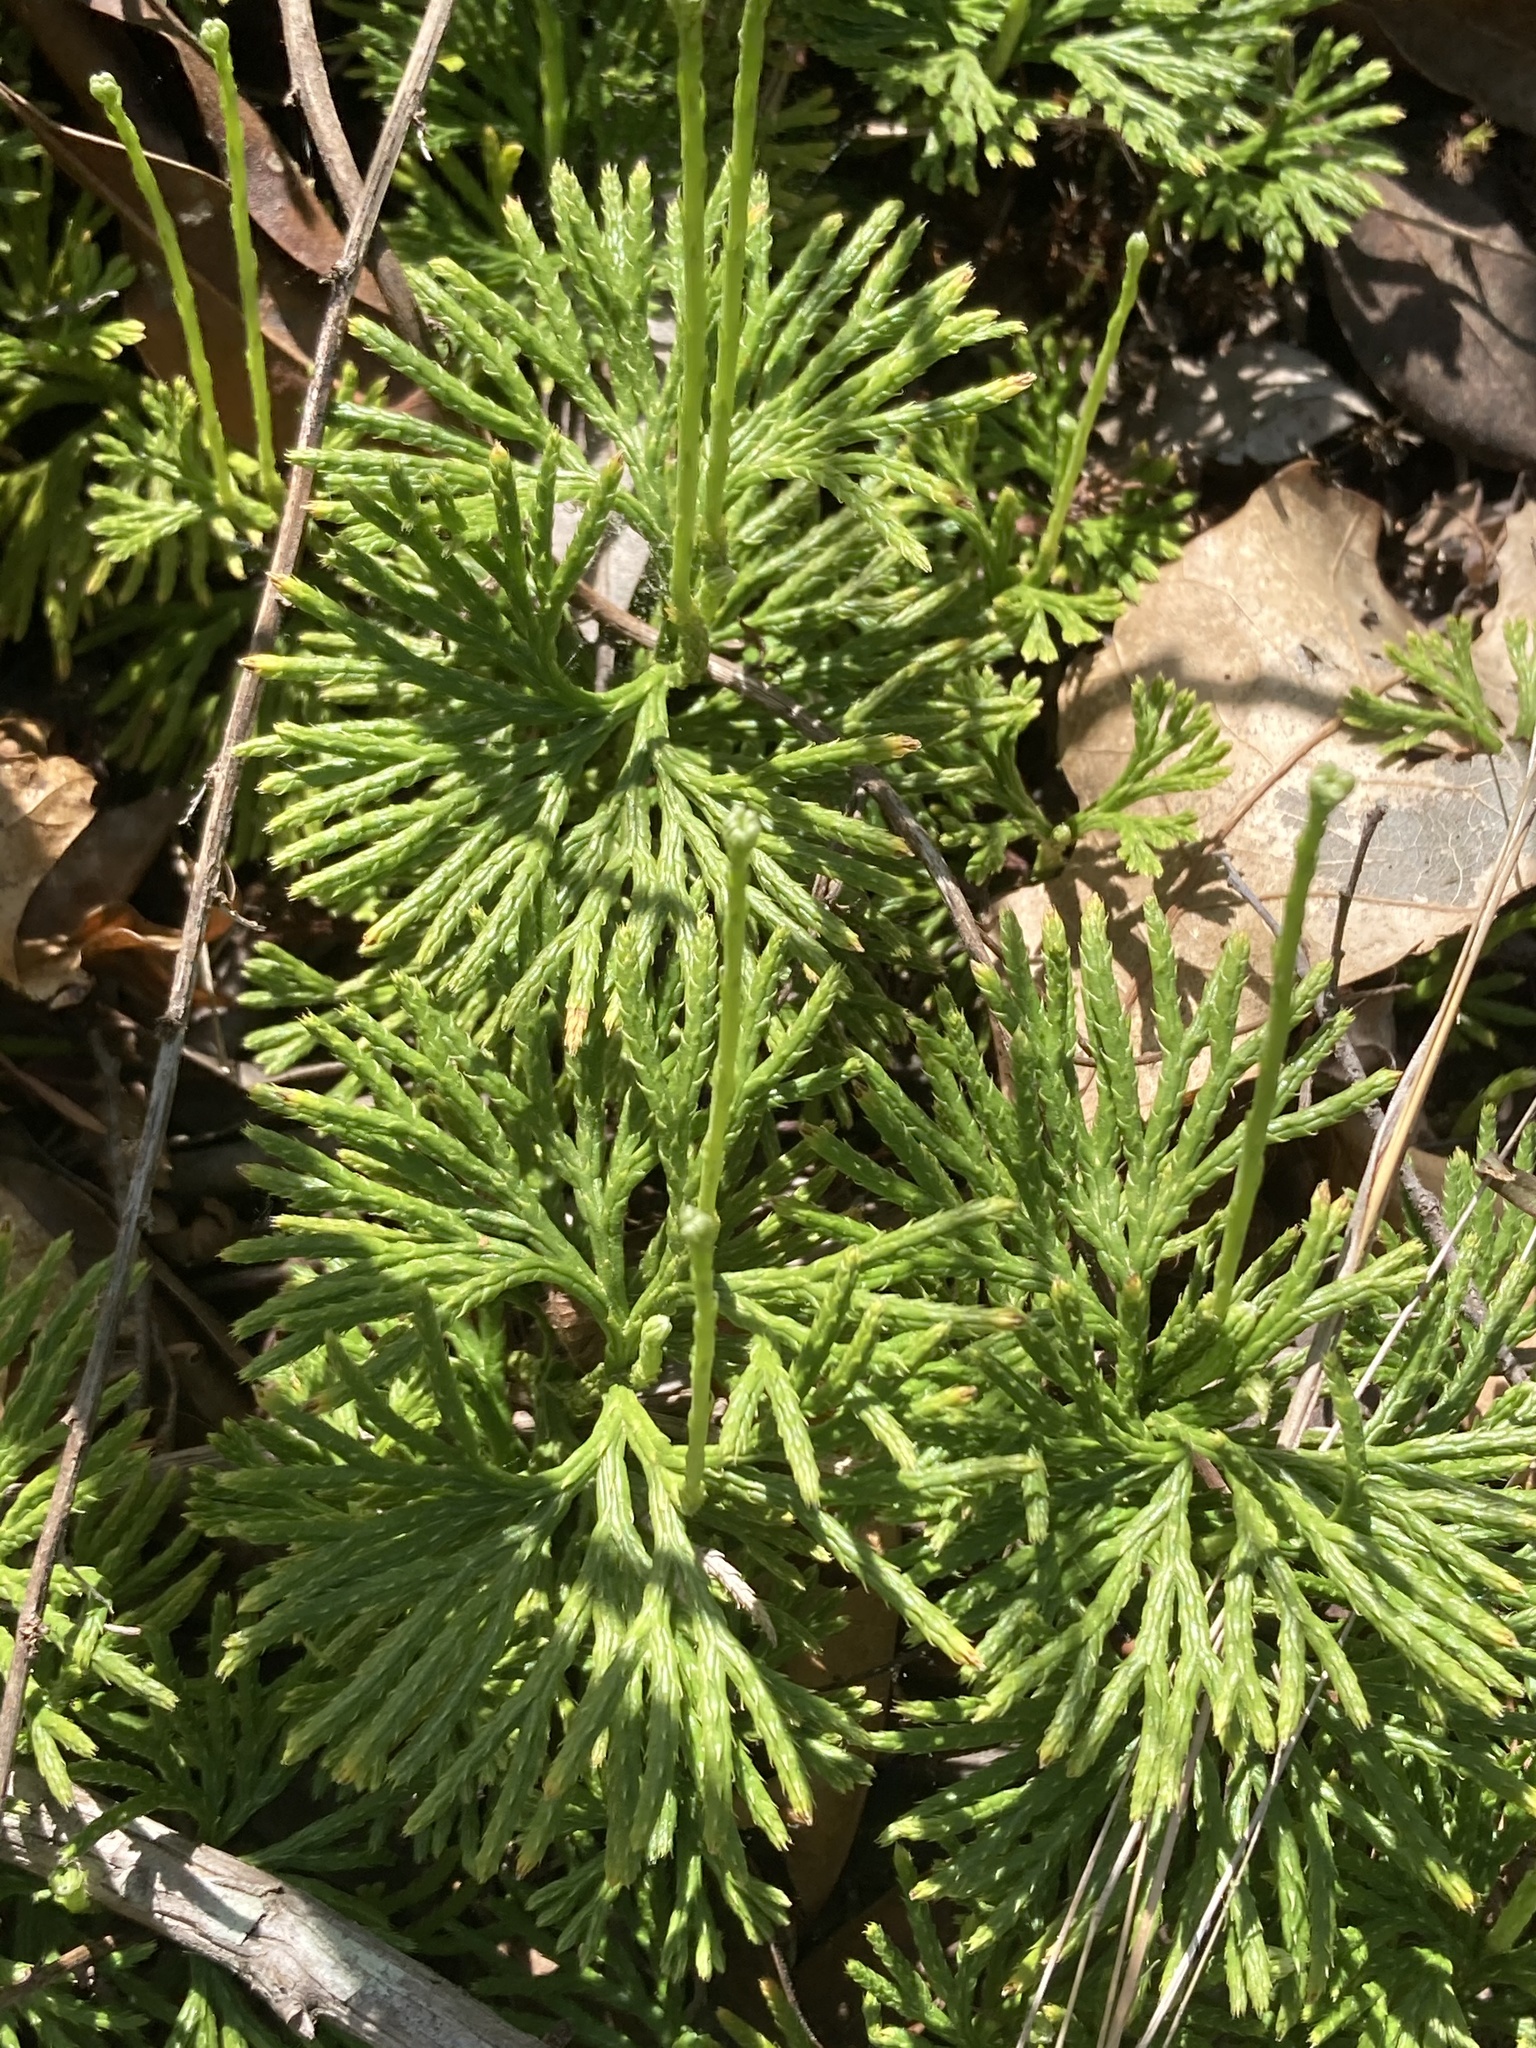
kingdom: Plantae
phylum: Tracheophyta
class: Lycopodiopsida
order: Lycopodiales
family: Lycopodiaceae
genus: Diphasiastrum
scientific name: Diphasiastrum digitatum
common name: Southern running-pine
